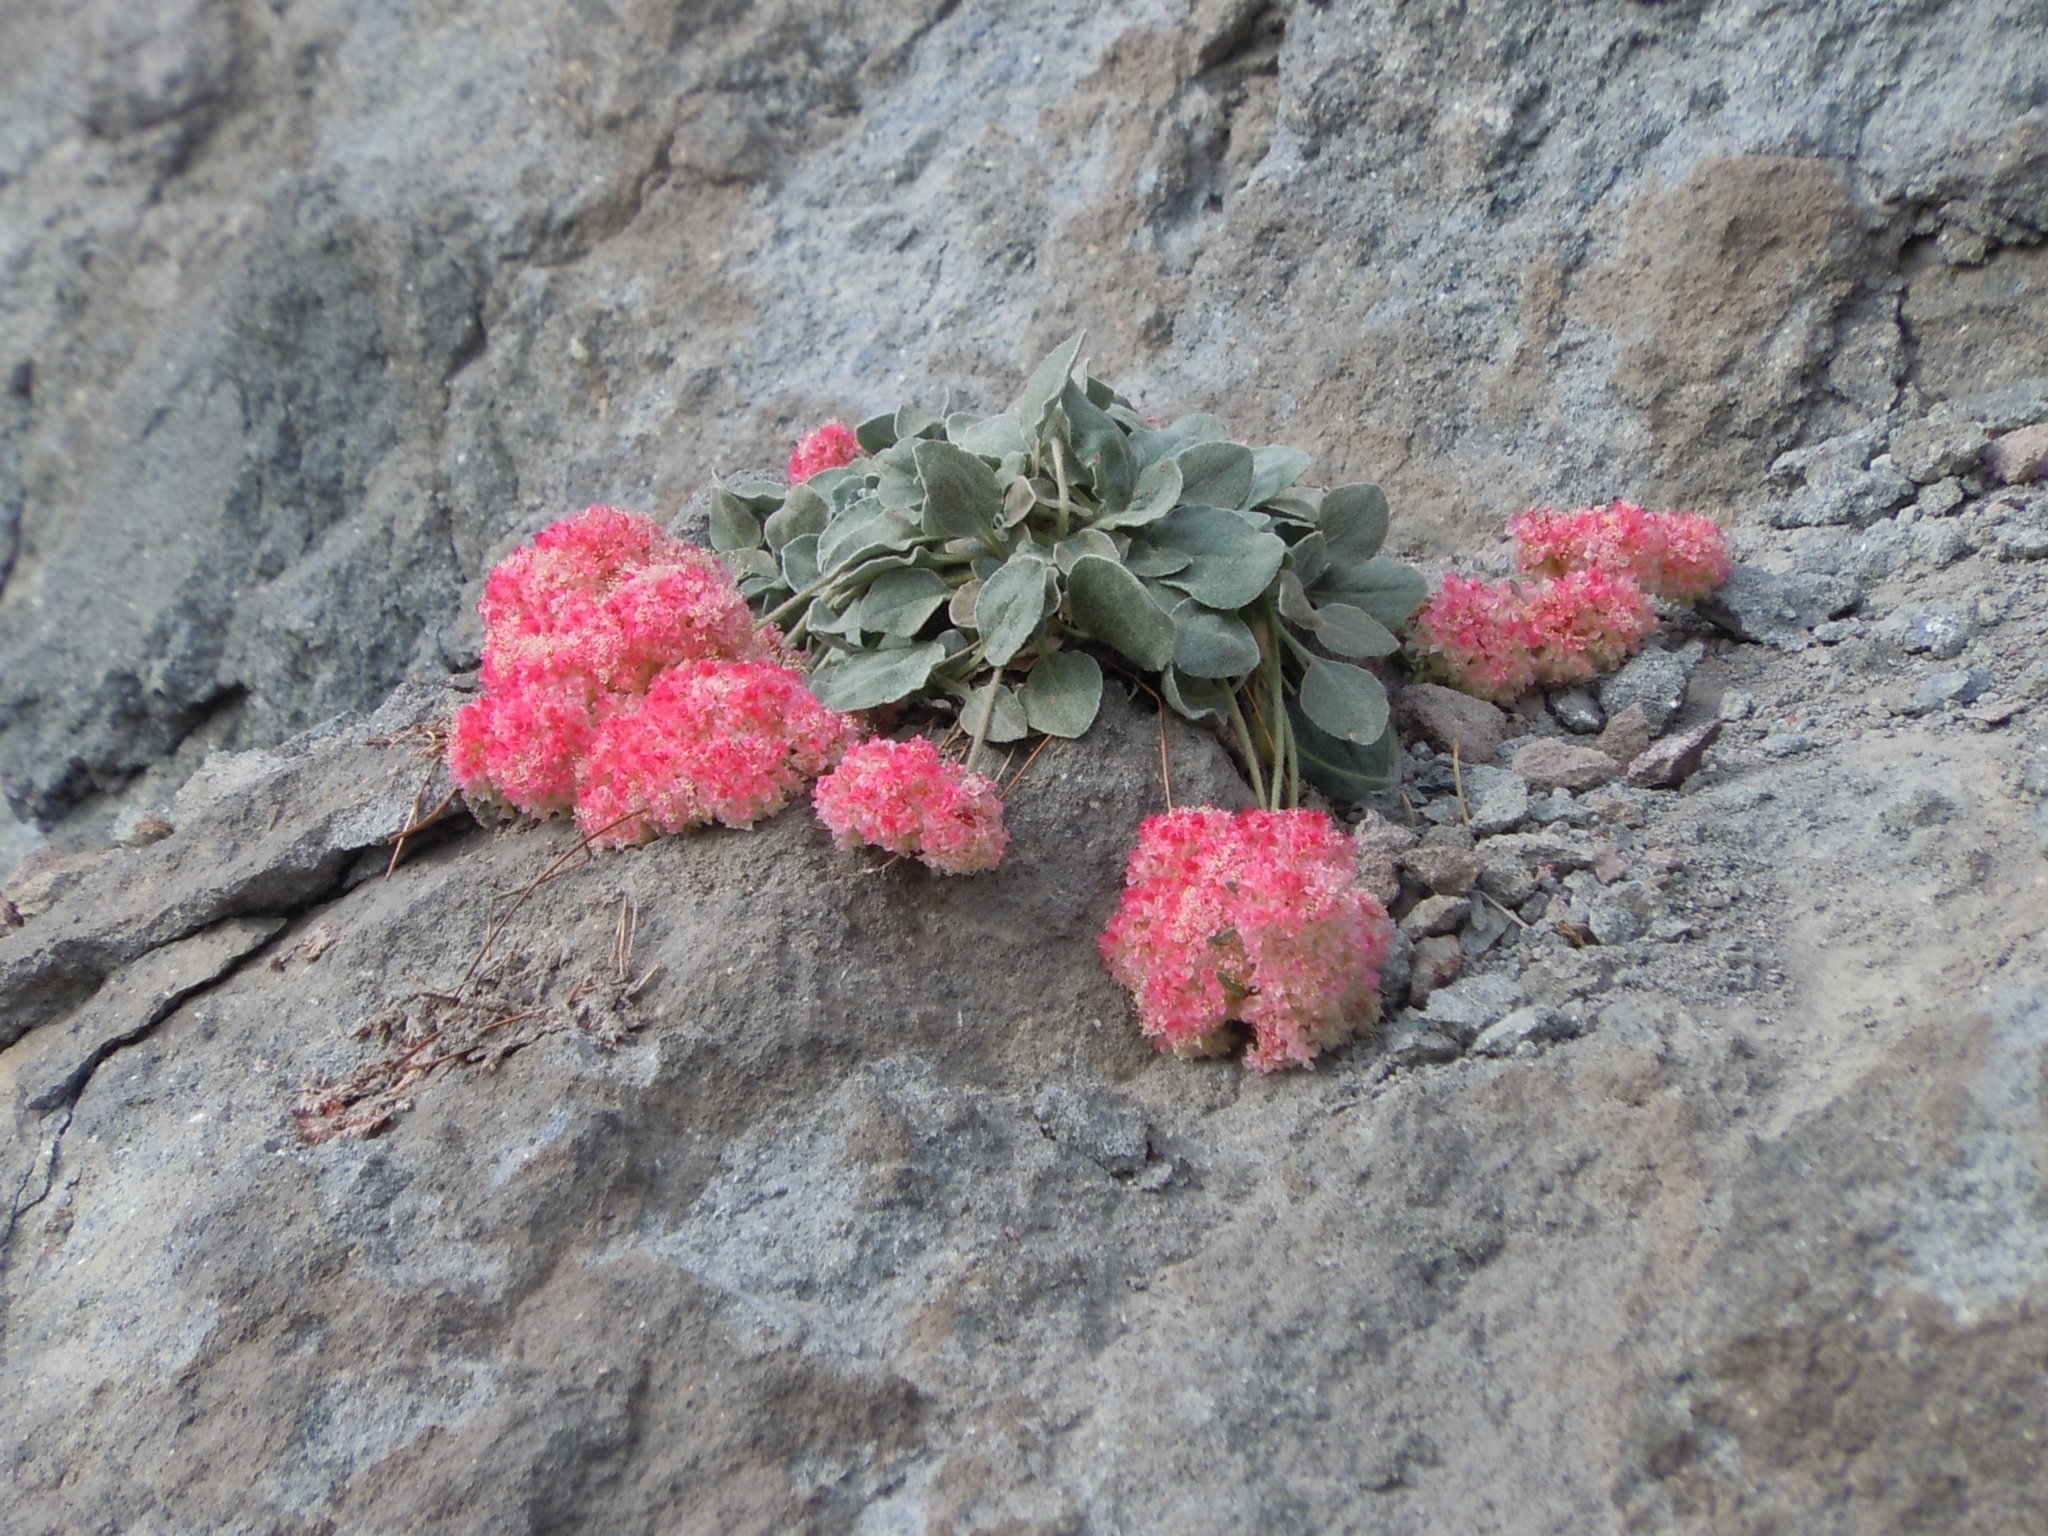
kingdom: Plantae
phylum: Tracheophyta
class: Magnoliopsida
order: Caryophyllales
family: Polygonaceae
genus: Eriogonum
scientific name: Eriogonum lobbii
